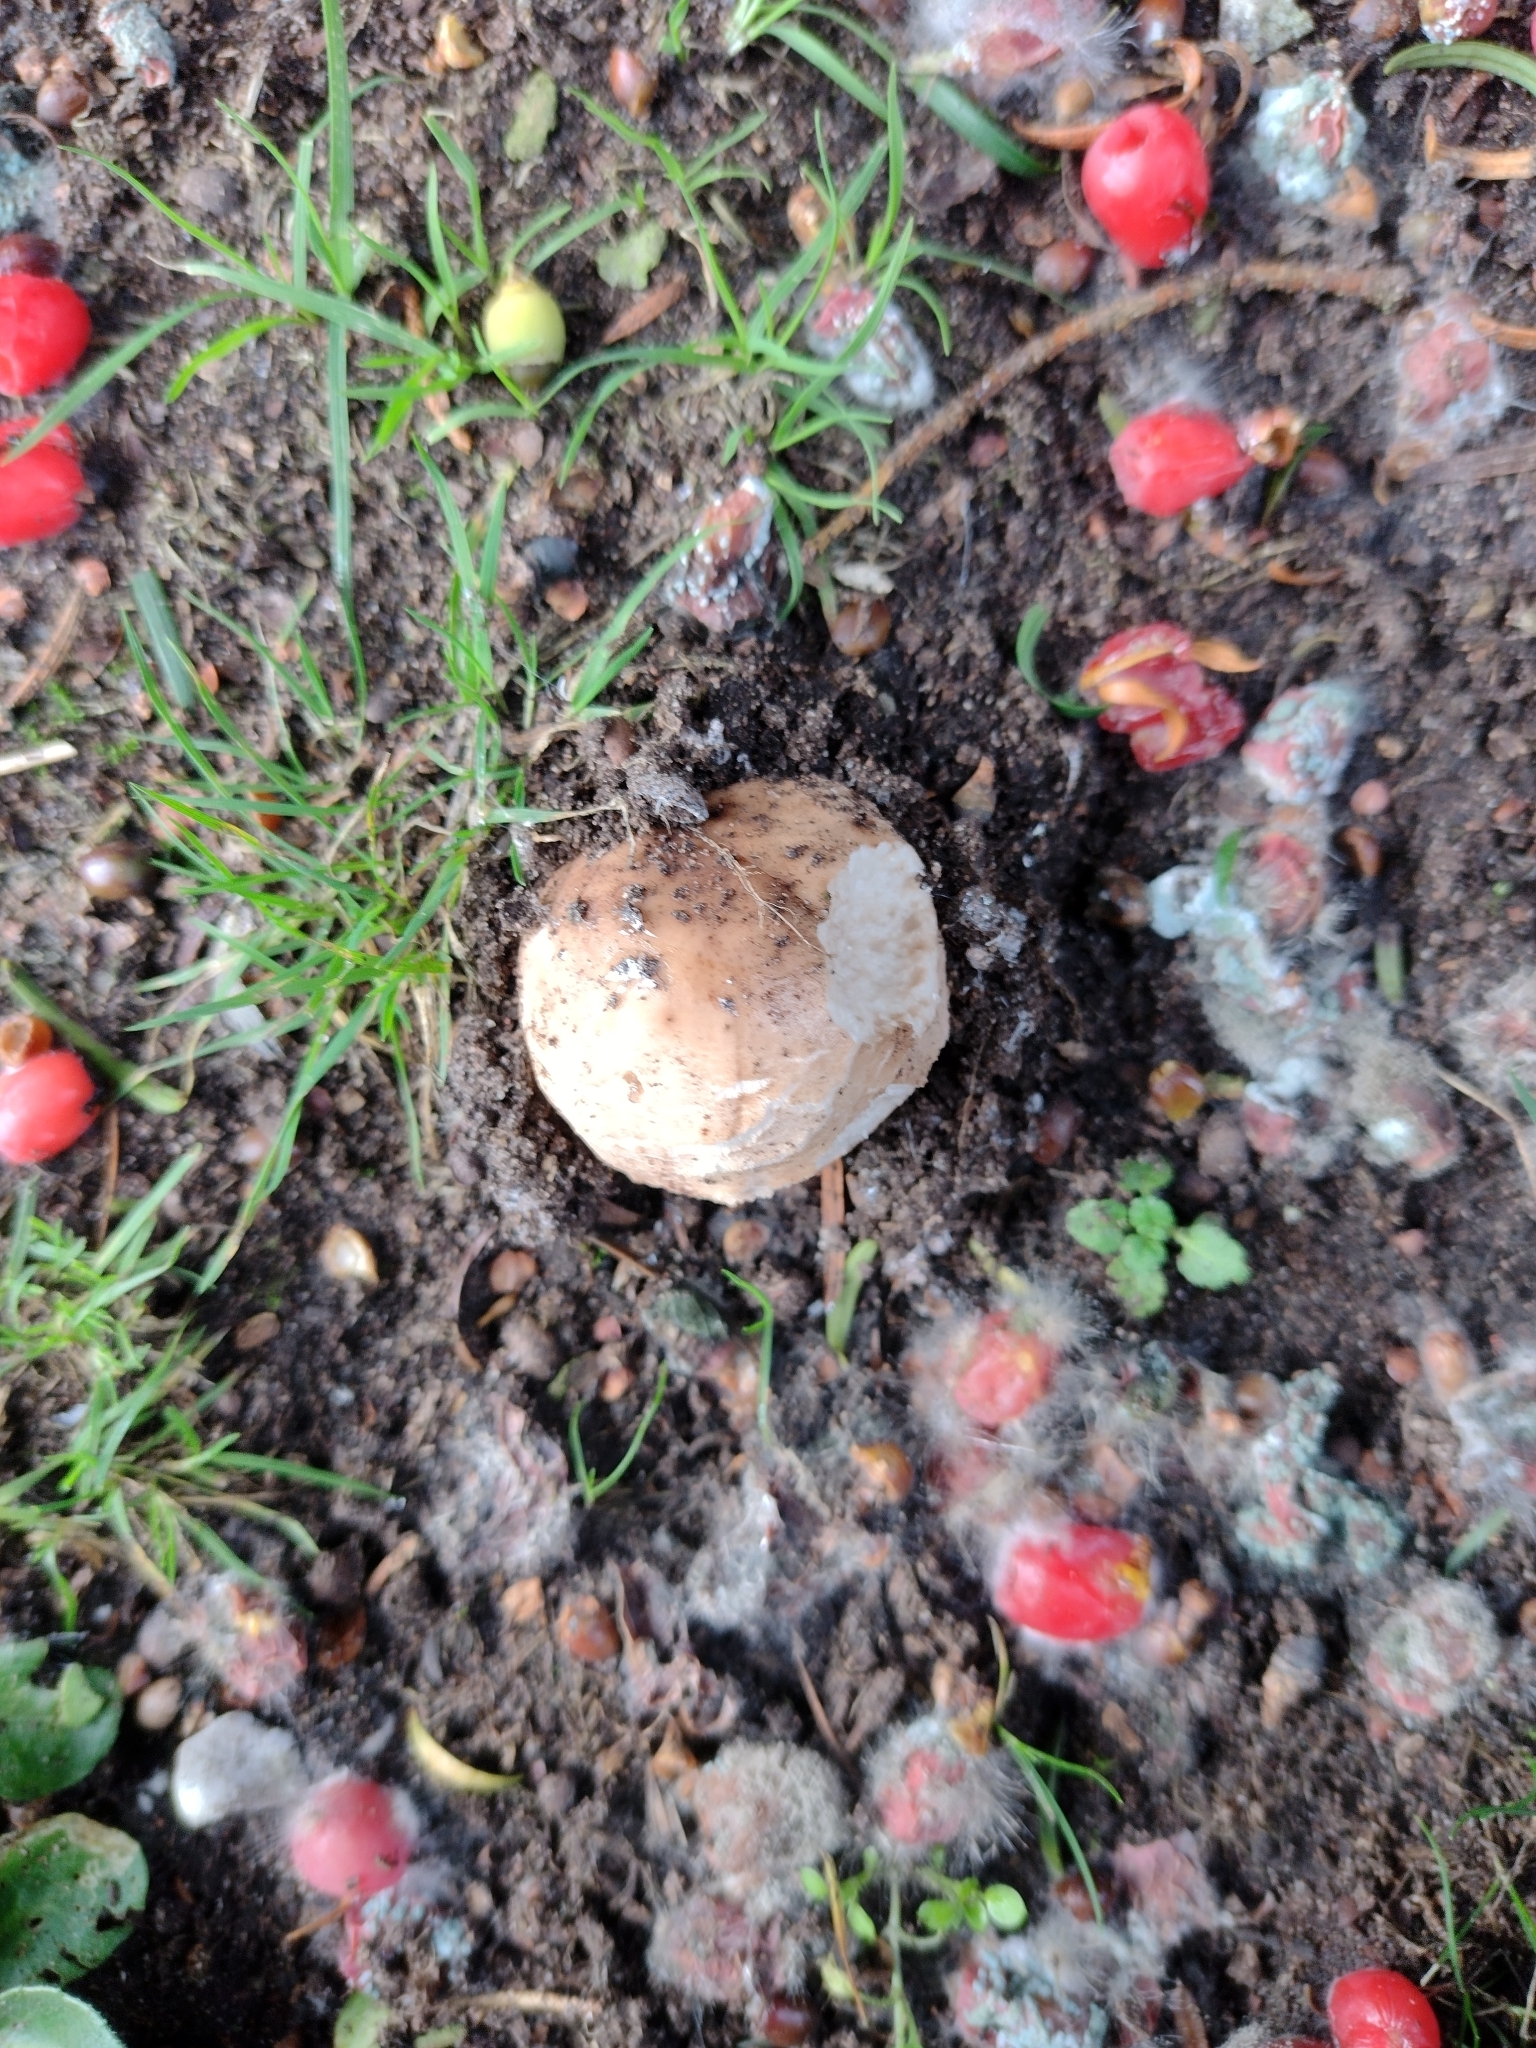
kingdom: Fungi
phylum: Basidiomycota
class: Agaricomycetes
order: Agaricales
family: Agaricaceae
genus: Chlorophyllum
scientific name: Chlorophyllum rhacodes
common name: Shaggy parasol
